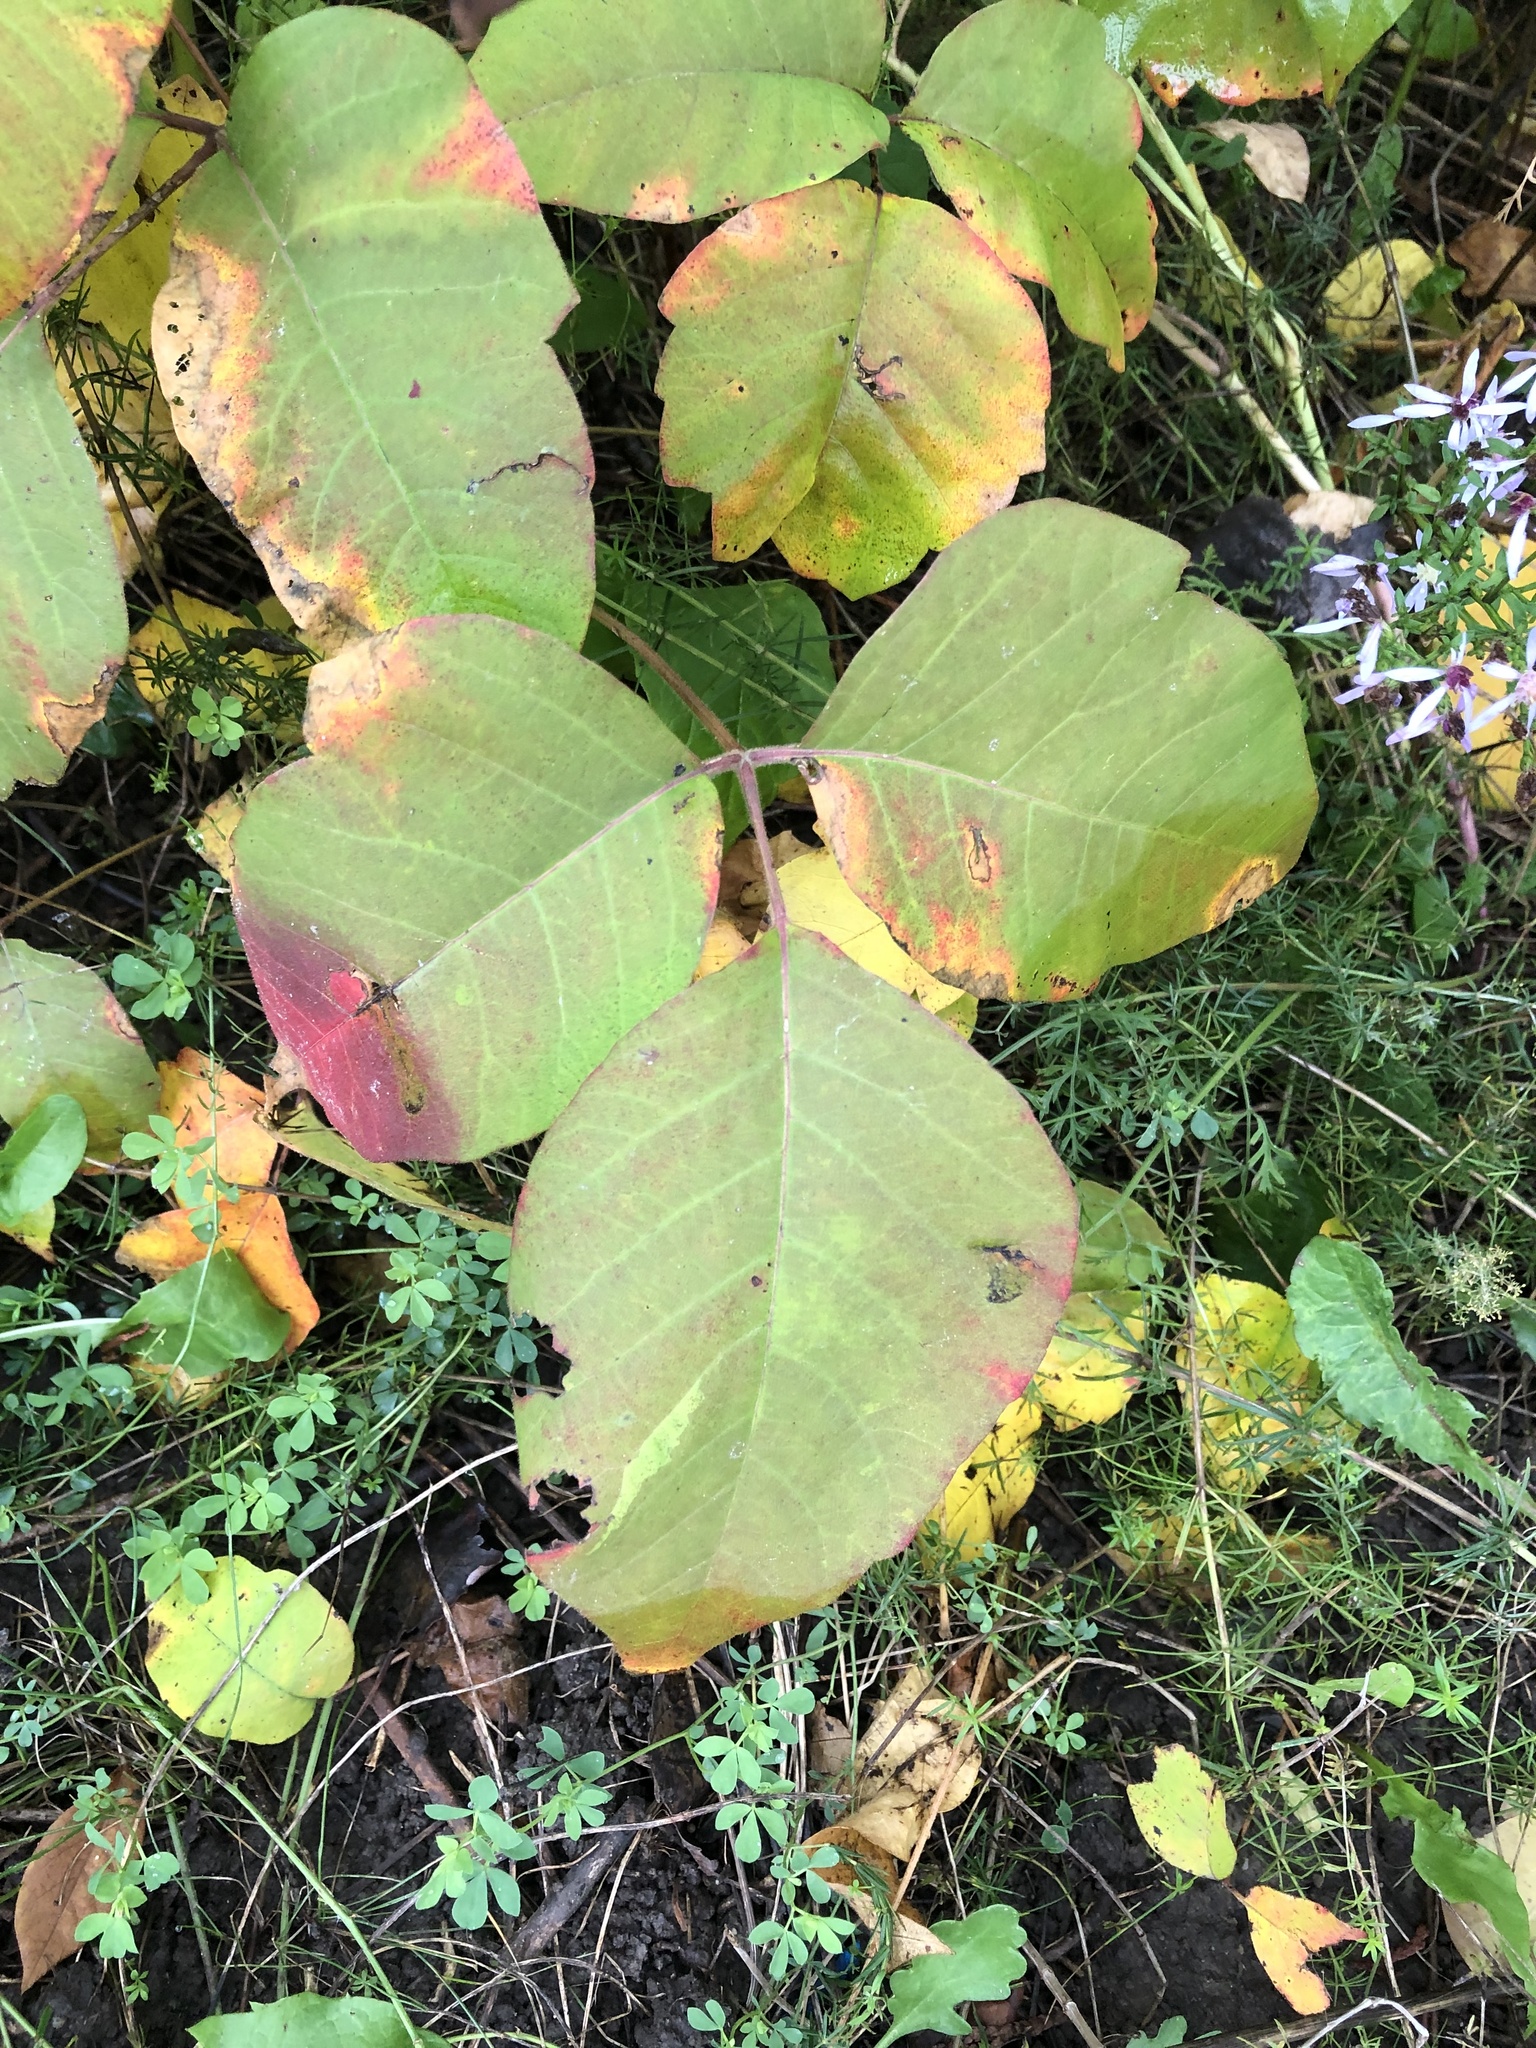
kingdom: Plantae
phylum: Tracheophyta
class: Magnoliopsida
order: Sapindales
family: Anacardiaceae
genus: Toxicodendron
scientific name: Toxicodendron rydbergii
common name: Rydberg's poison-ivy
